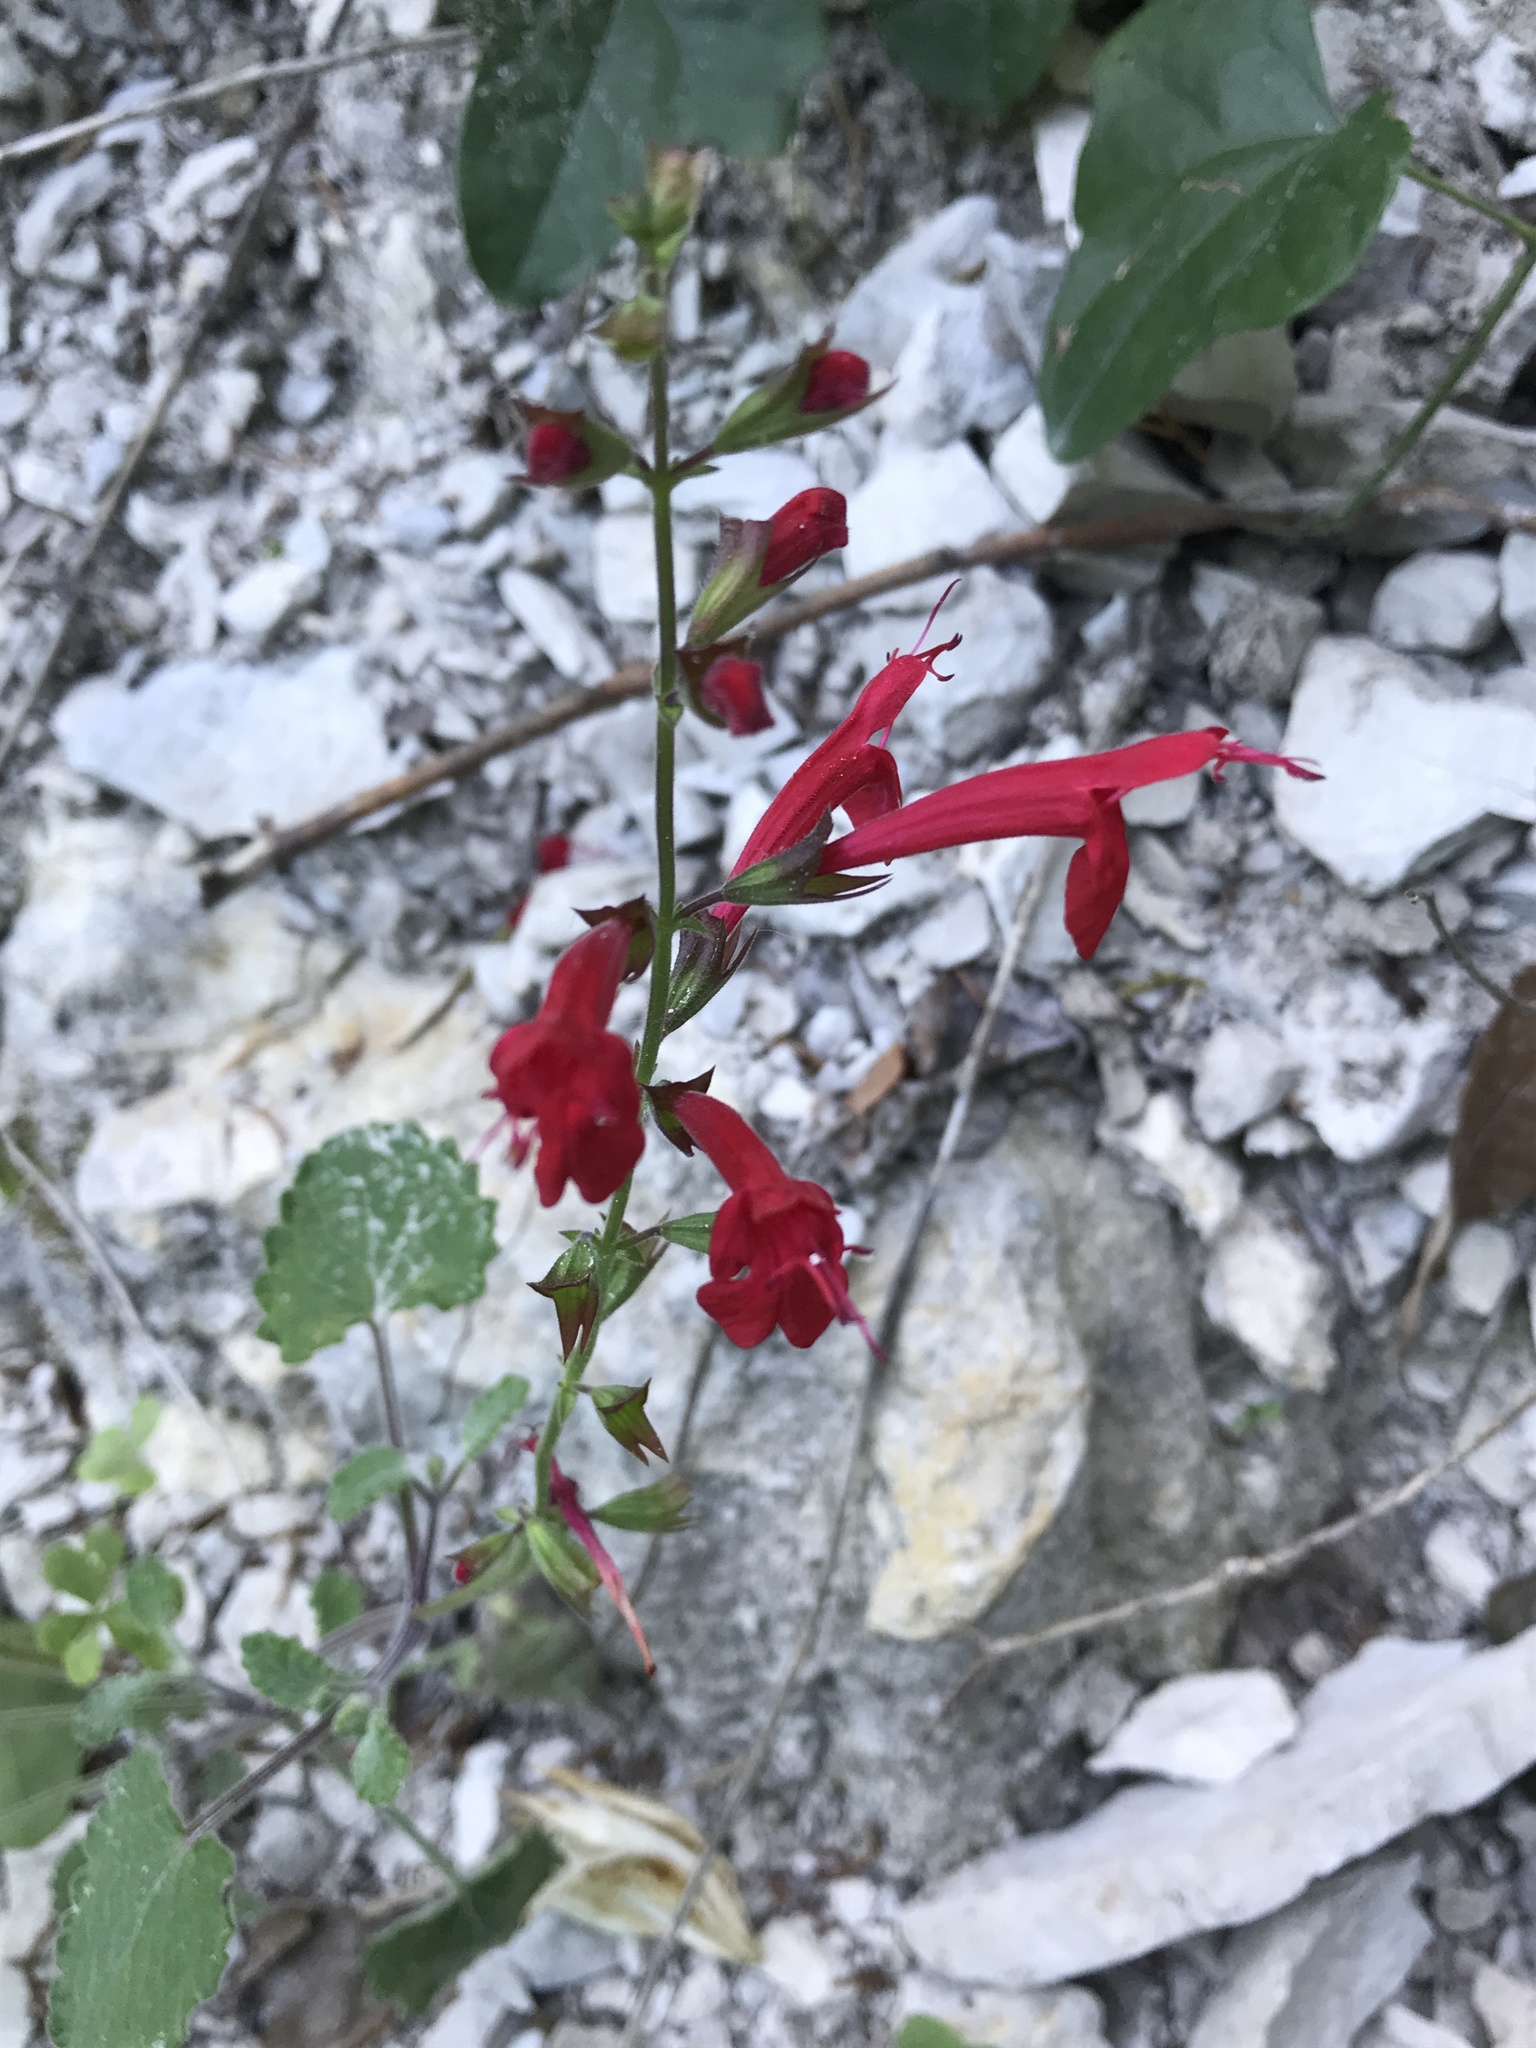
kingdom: Plantae
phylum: Tracheophyta
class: Magnoliopsida
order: Lamiales
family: Lamiaceae
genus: Salvia
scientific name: Salvia roemeriana
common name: Cedar sage
